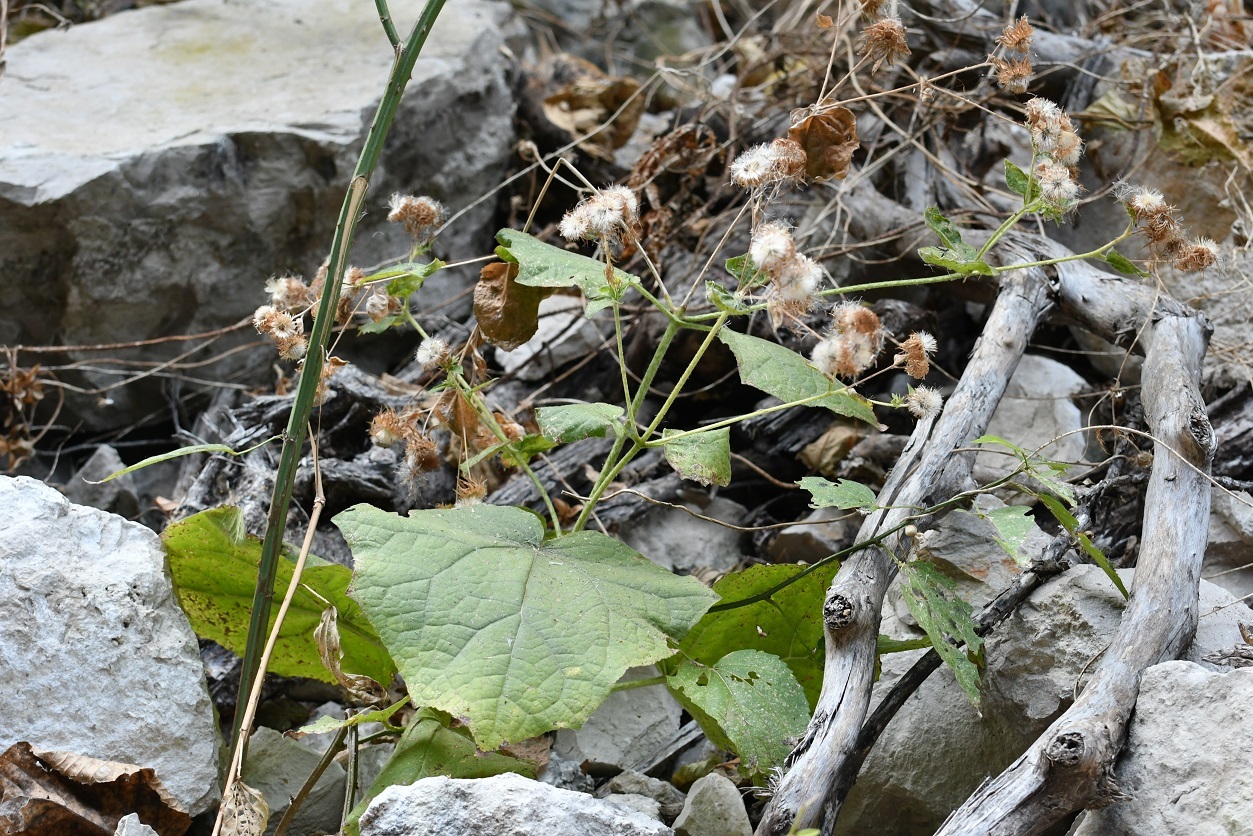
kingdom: Plantae
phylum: Tracheophyta
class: Magnoliopsida
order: Asterales
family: Asteraceae
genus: Eupatoriastrum
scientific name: Eupatoriastrum corvi
